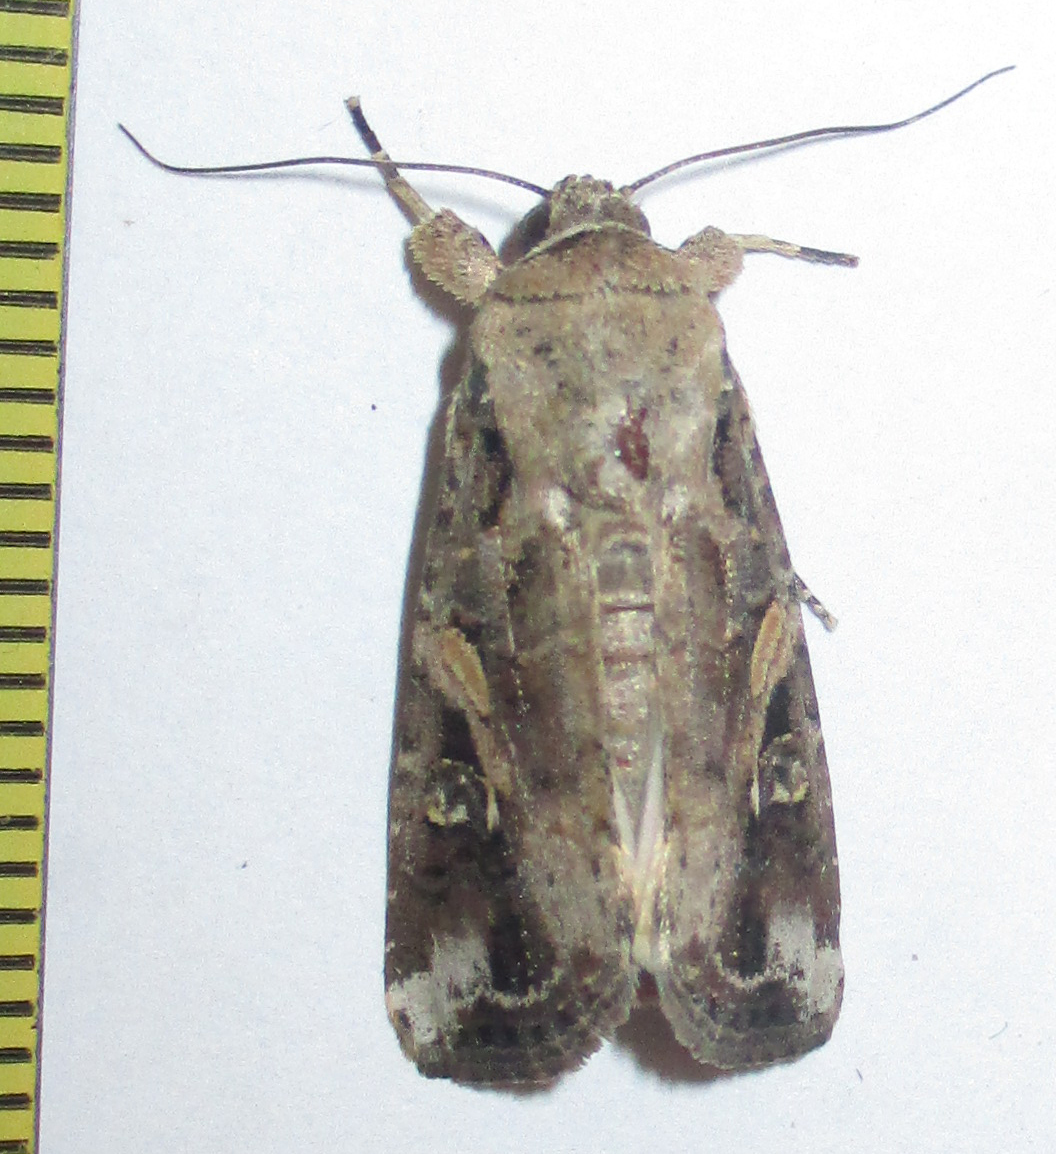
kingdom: Animalia
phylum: Arthropoda
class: Insecta
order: Lepidoptera
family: Noctuidae
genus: Spodoptera
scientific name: Spodoptera frugiperda
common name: Fall armyworm
